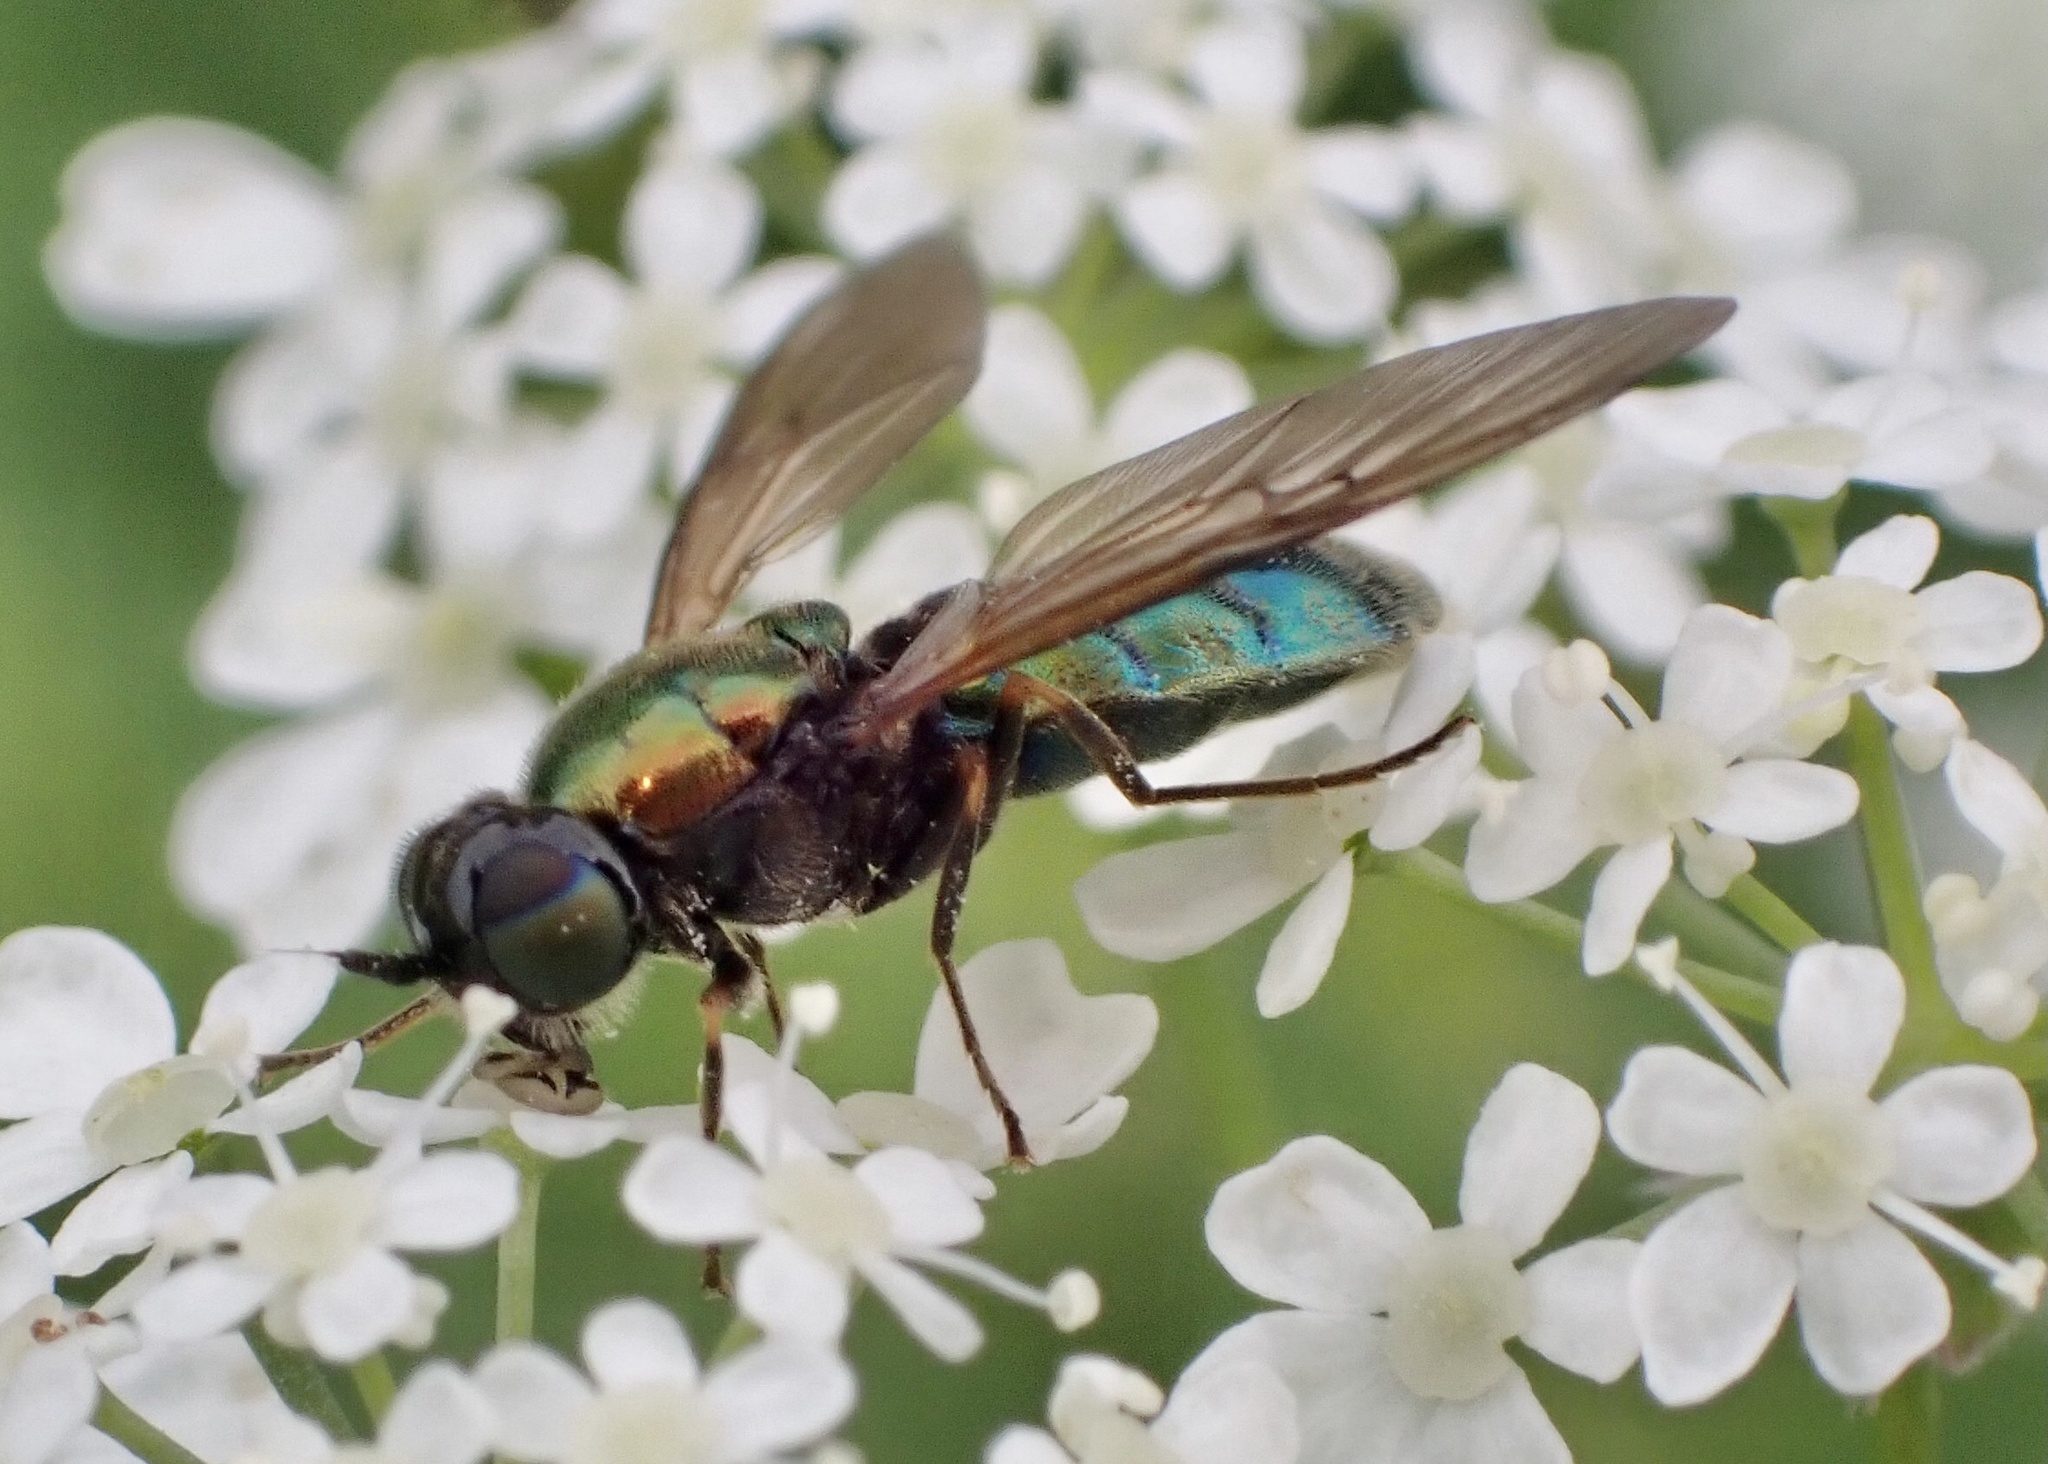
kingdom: Animalia
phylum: Arthropoda
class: Insecta
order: Diptera
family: Stratiomyidae
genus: Chloromyia
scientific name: Chloromyia formosa
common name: Soldier fly
